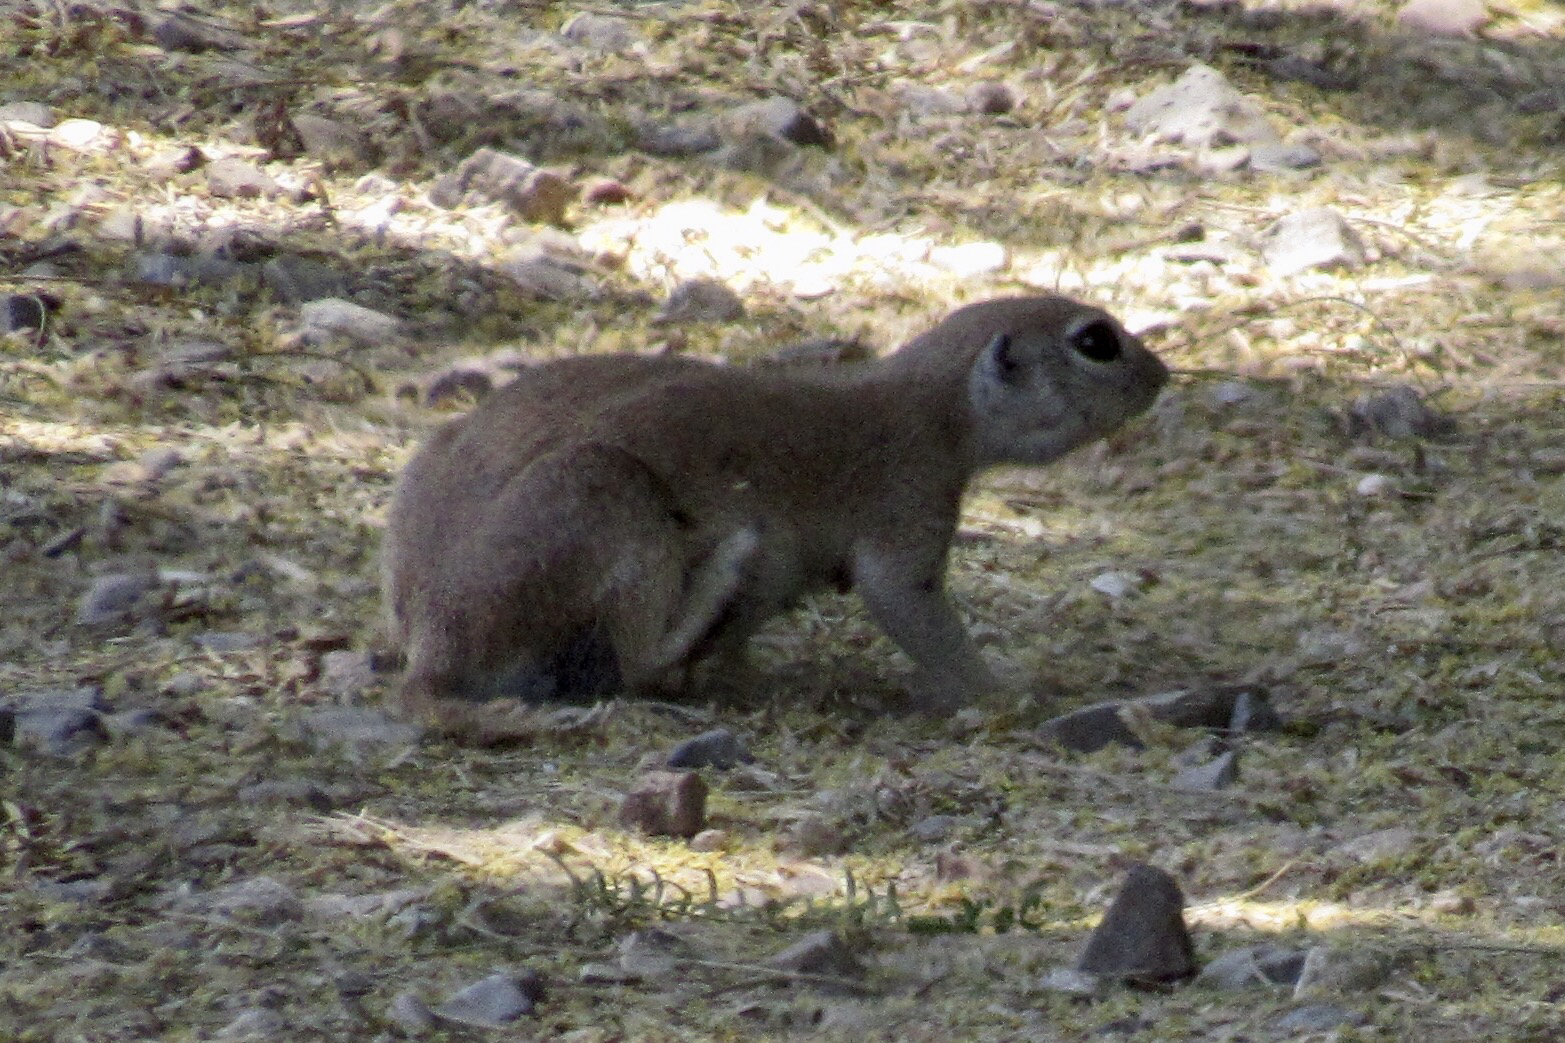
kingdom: Animalia
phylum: Chordata
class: Mammalia
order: Rodentia
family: Sciuridae
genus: Xerospermophilus
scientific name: Xerospermophilus tereticaudus
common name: Round-tailed ground squirrel
